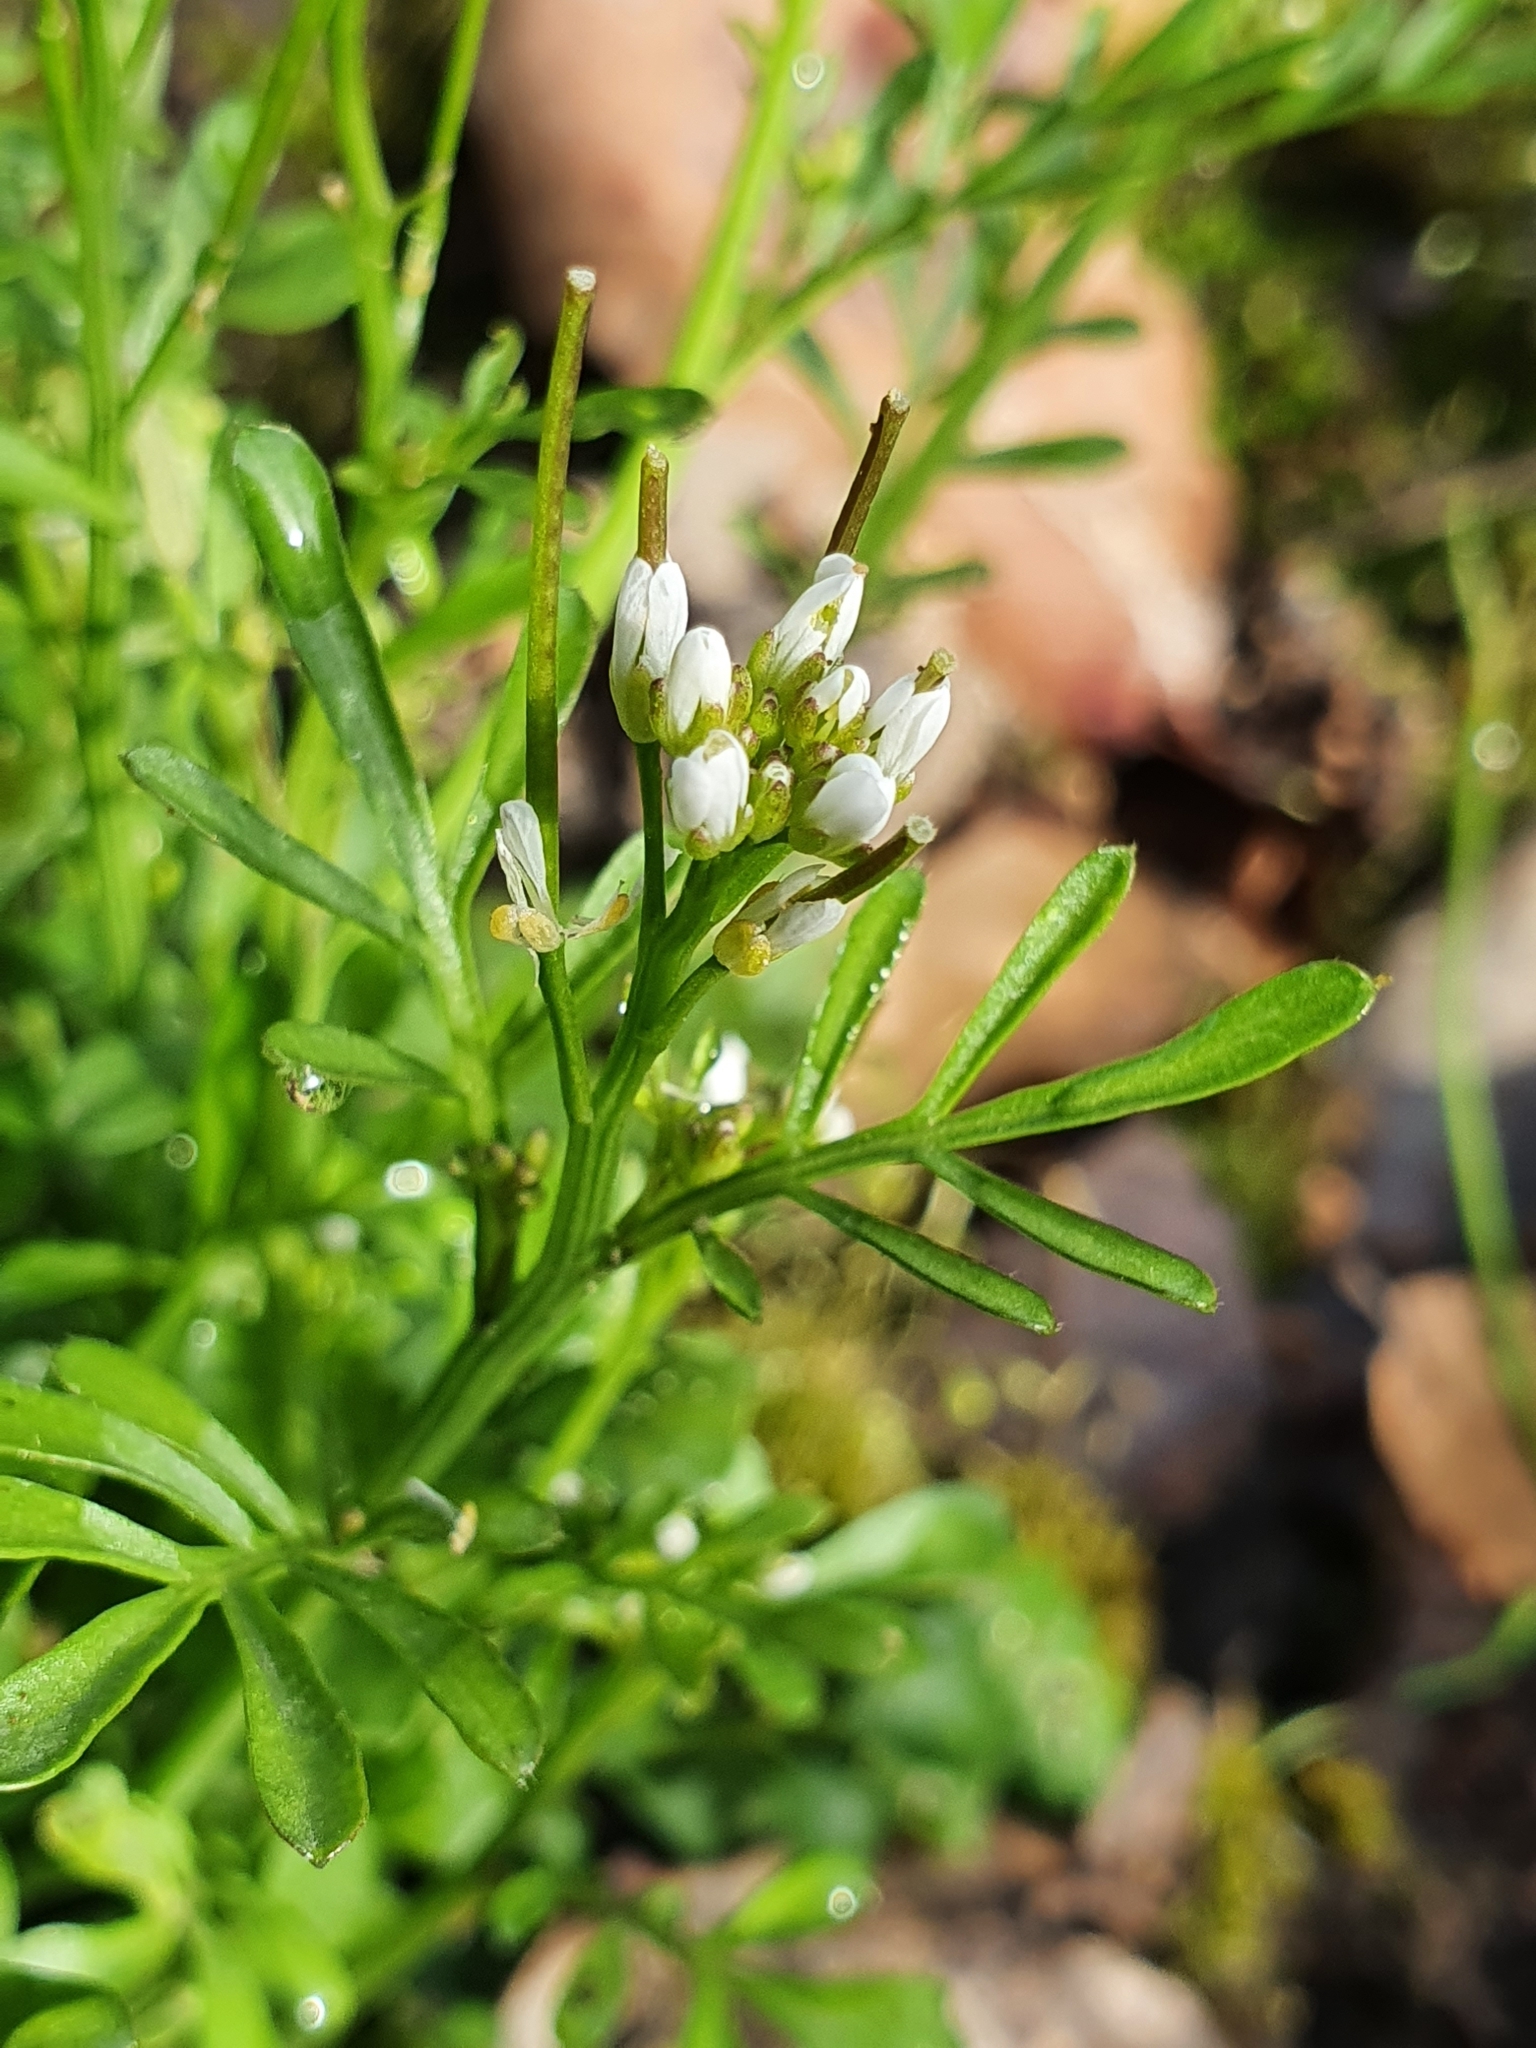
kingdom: Plantae
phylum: Tracheophyta
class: Magnoliopsida
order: Brassicales
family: Brassicaceae
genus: Cardamine
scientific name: Cardamine hirsuta
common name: Hairy bittercress
